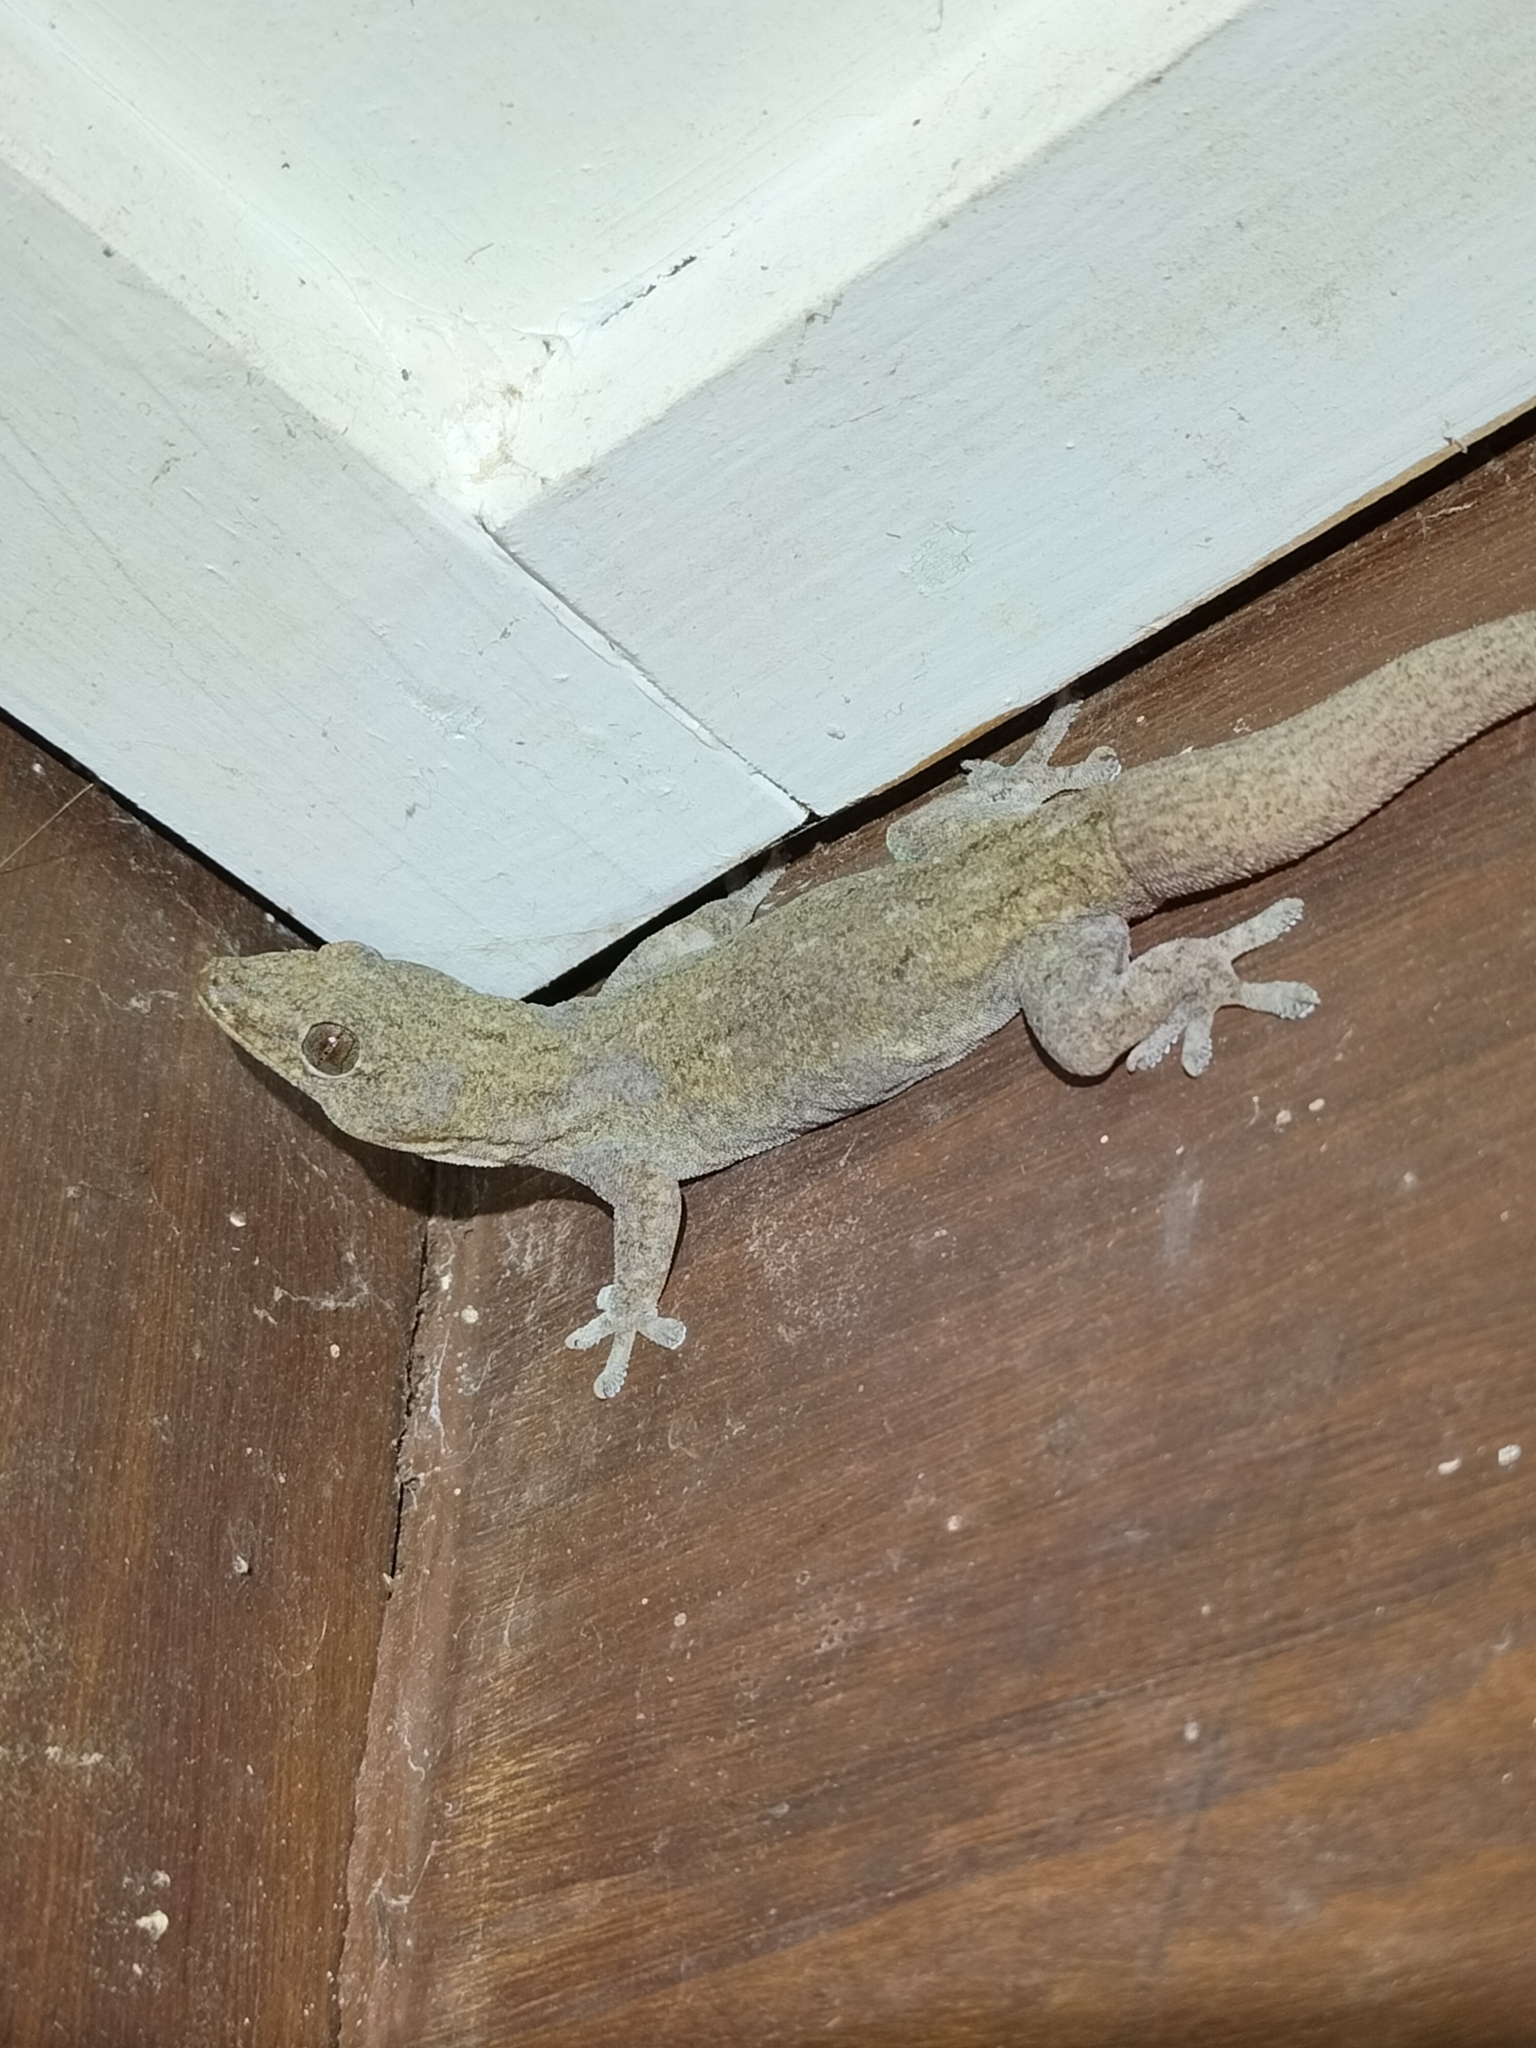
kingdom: Animalia
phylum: Chordata
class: Squamata
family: Gekkonidae
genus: Hemidactylus
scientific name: Hemidactylus frenatus
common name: Common house gecko
